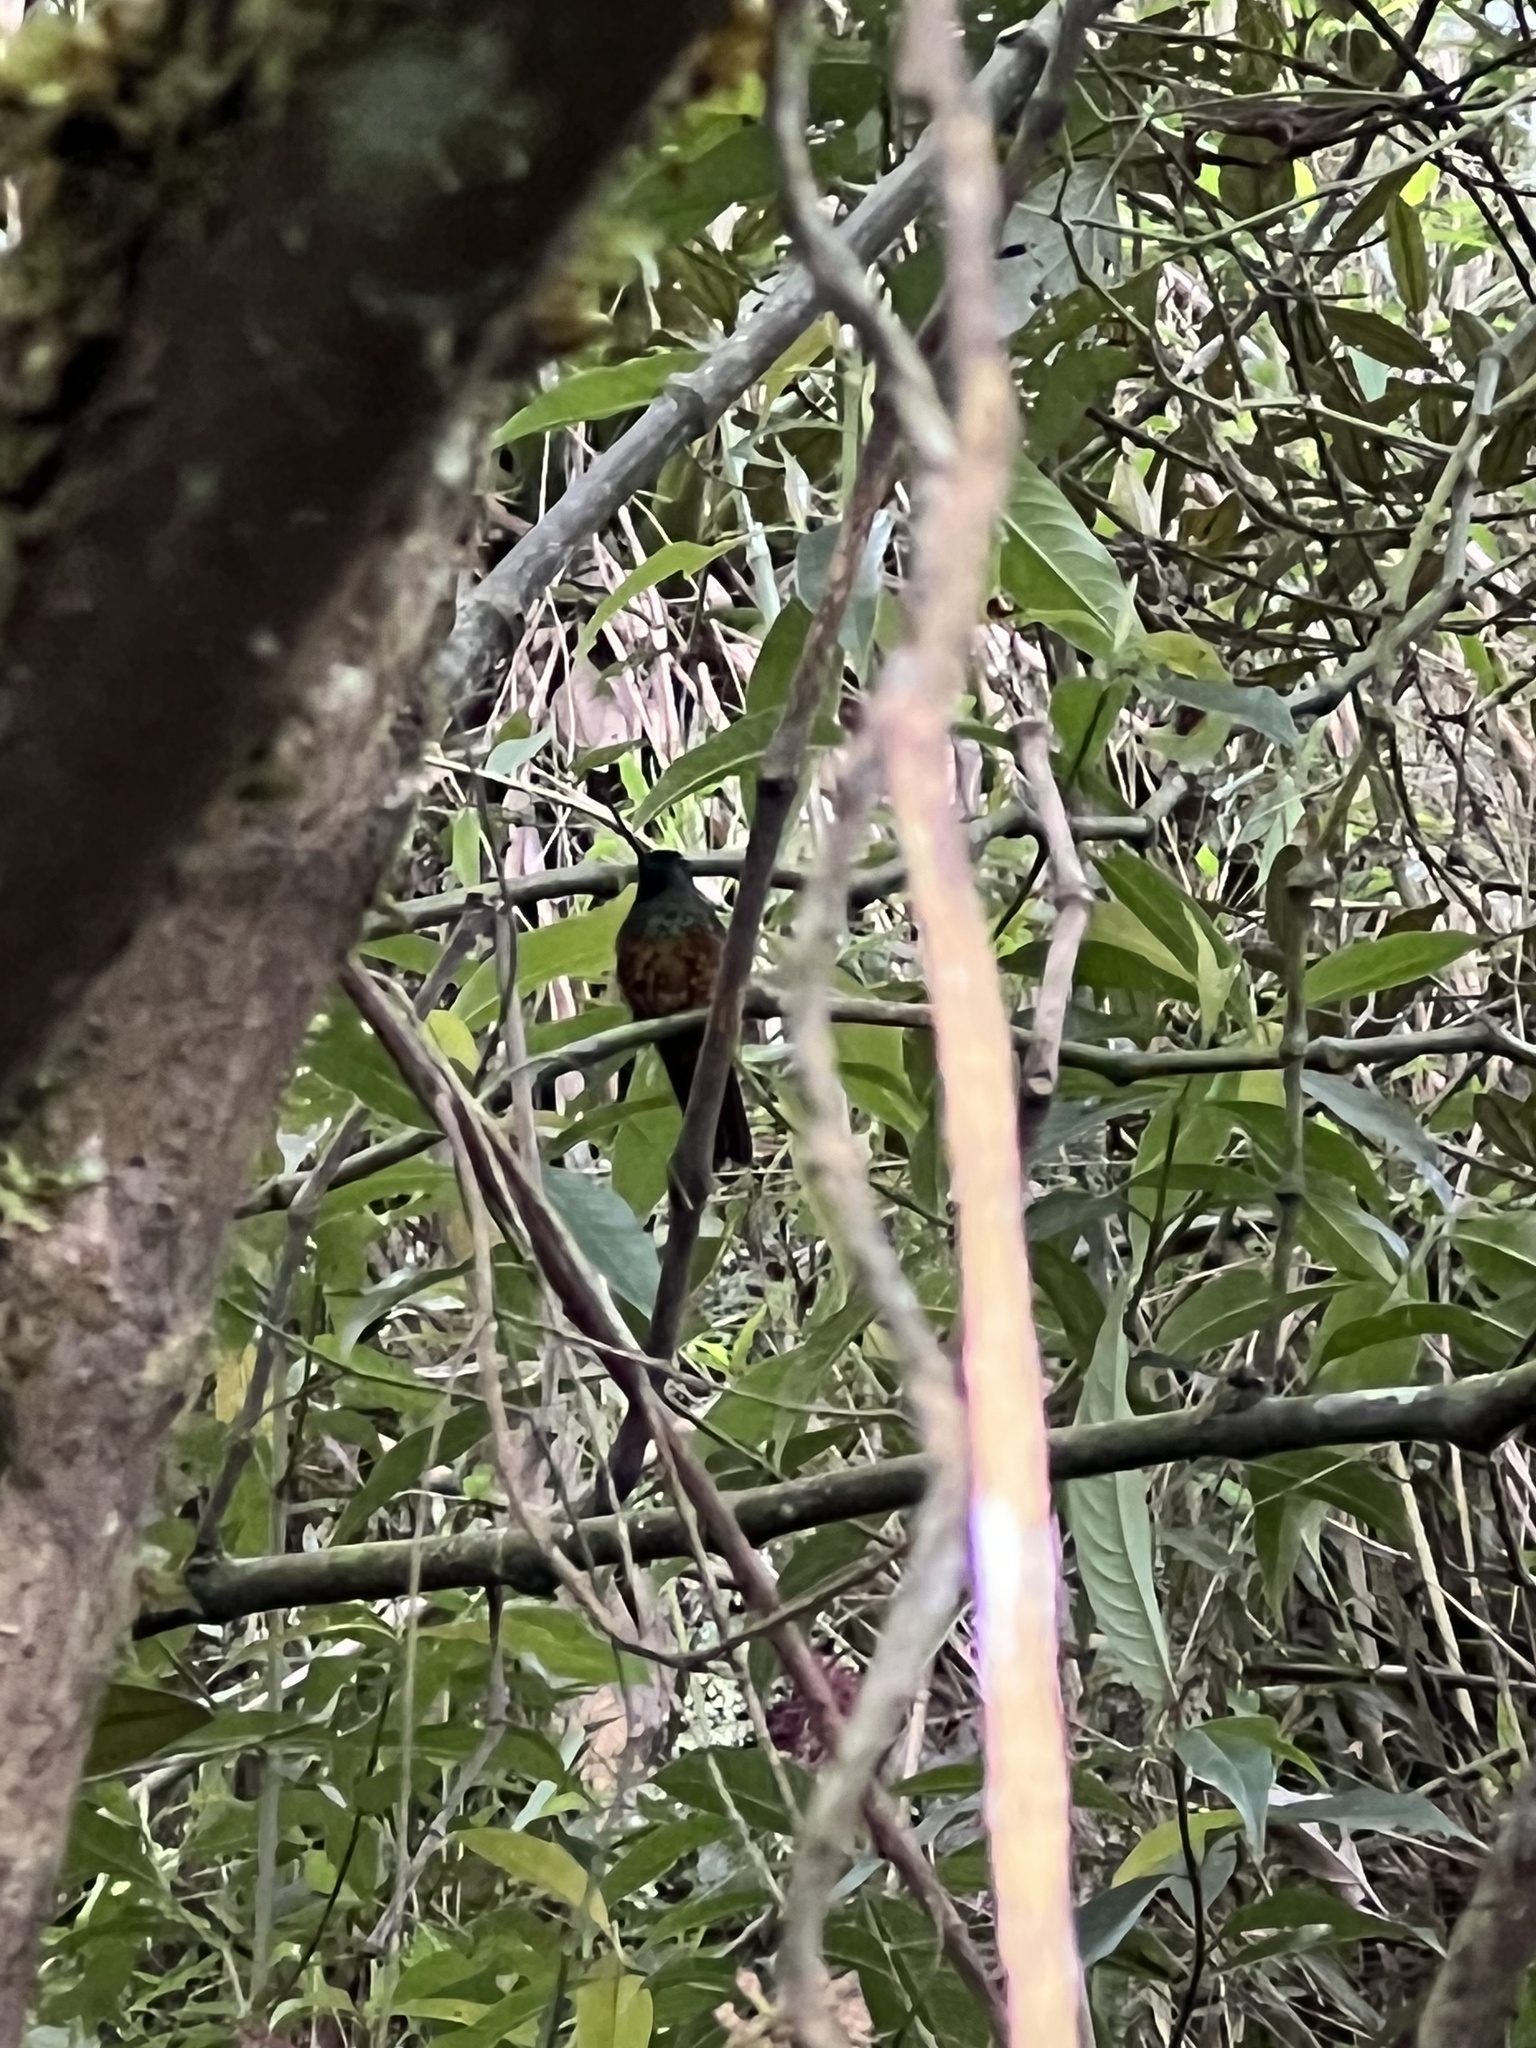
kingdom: Animalia
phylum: Chordata
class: Aves
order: Apodiformes
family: Trochilidae
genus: Coeligena
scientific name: Coeligena bonapartei
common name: Golden-bellied starfrontlet
